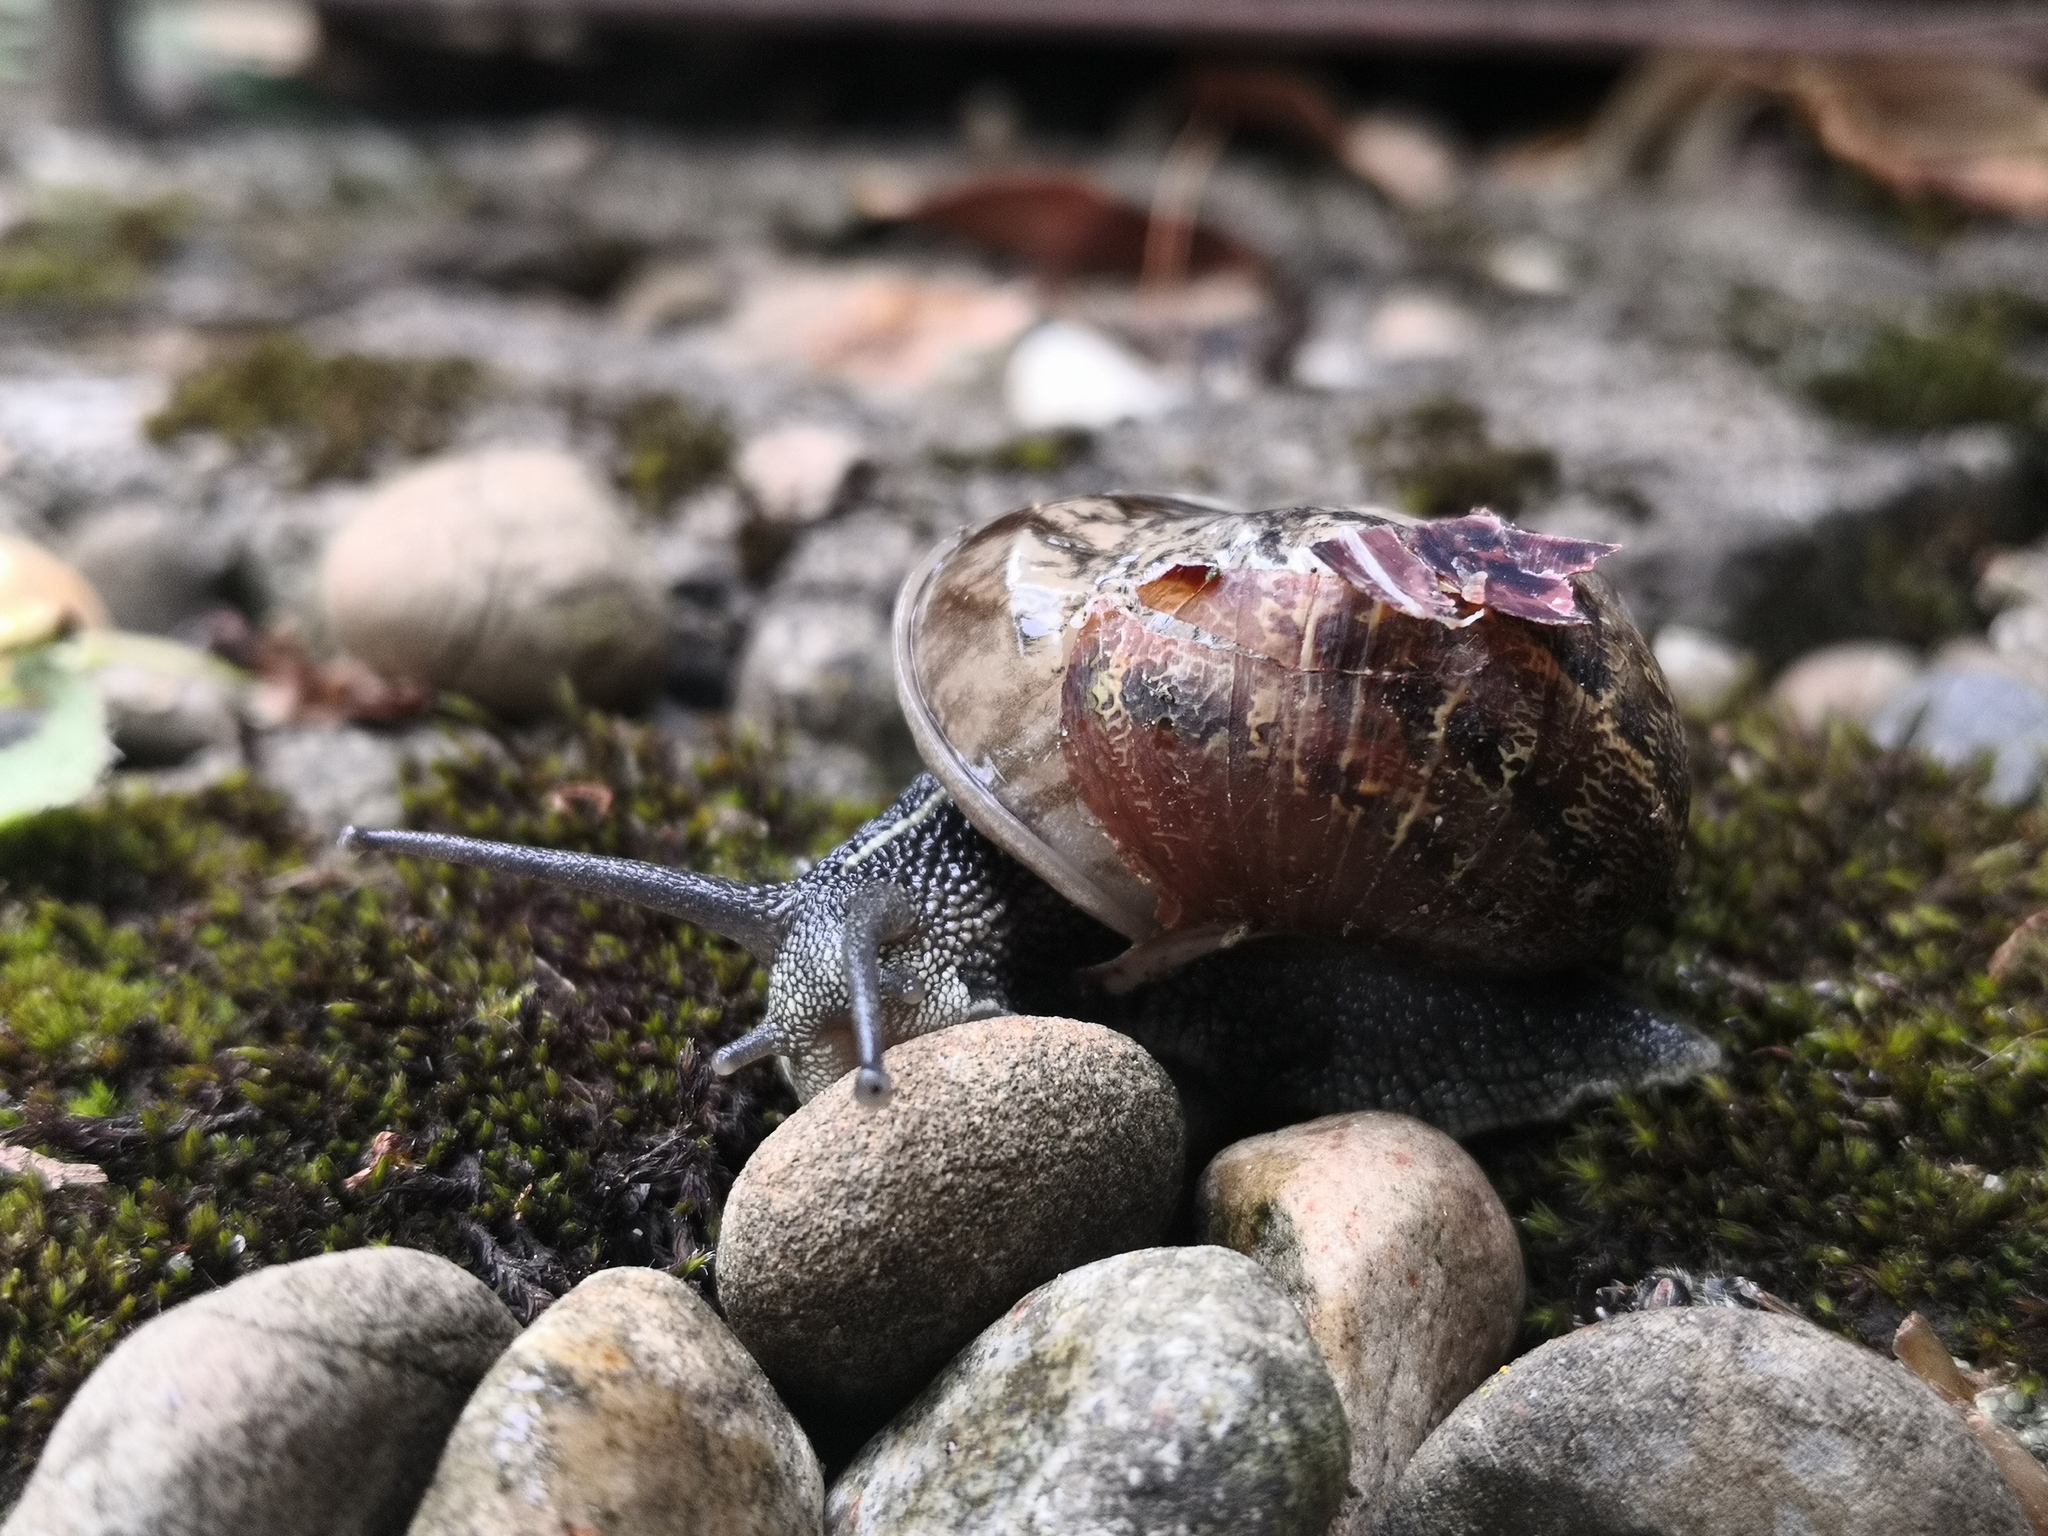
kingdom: Animalia
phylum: Mollusca
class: Gastropoda
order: Stylommatophora
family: Helicidae
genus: Cornu
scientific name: Cornu aspersum
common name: Brown garden snail
